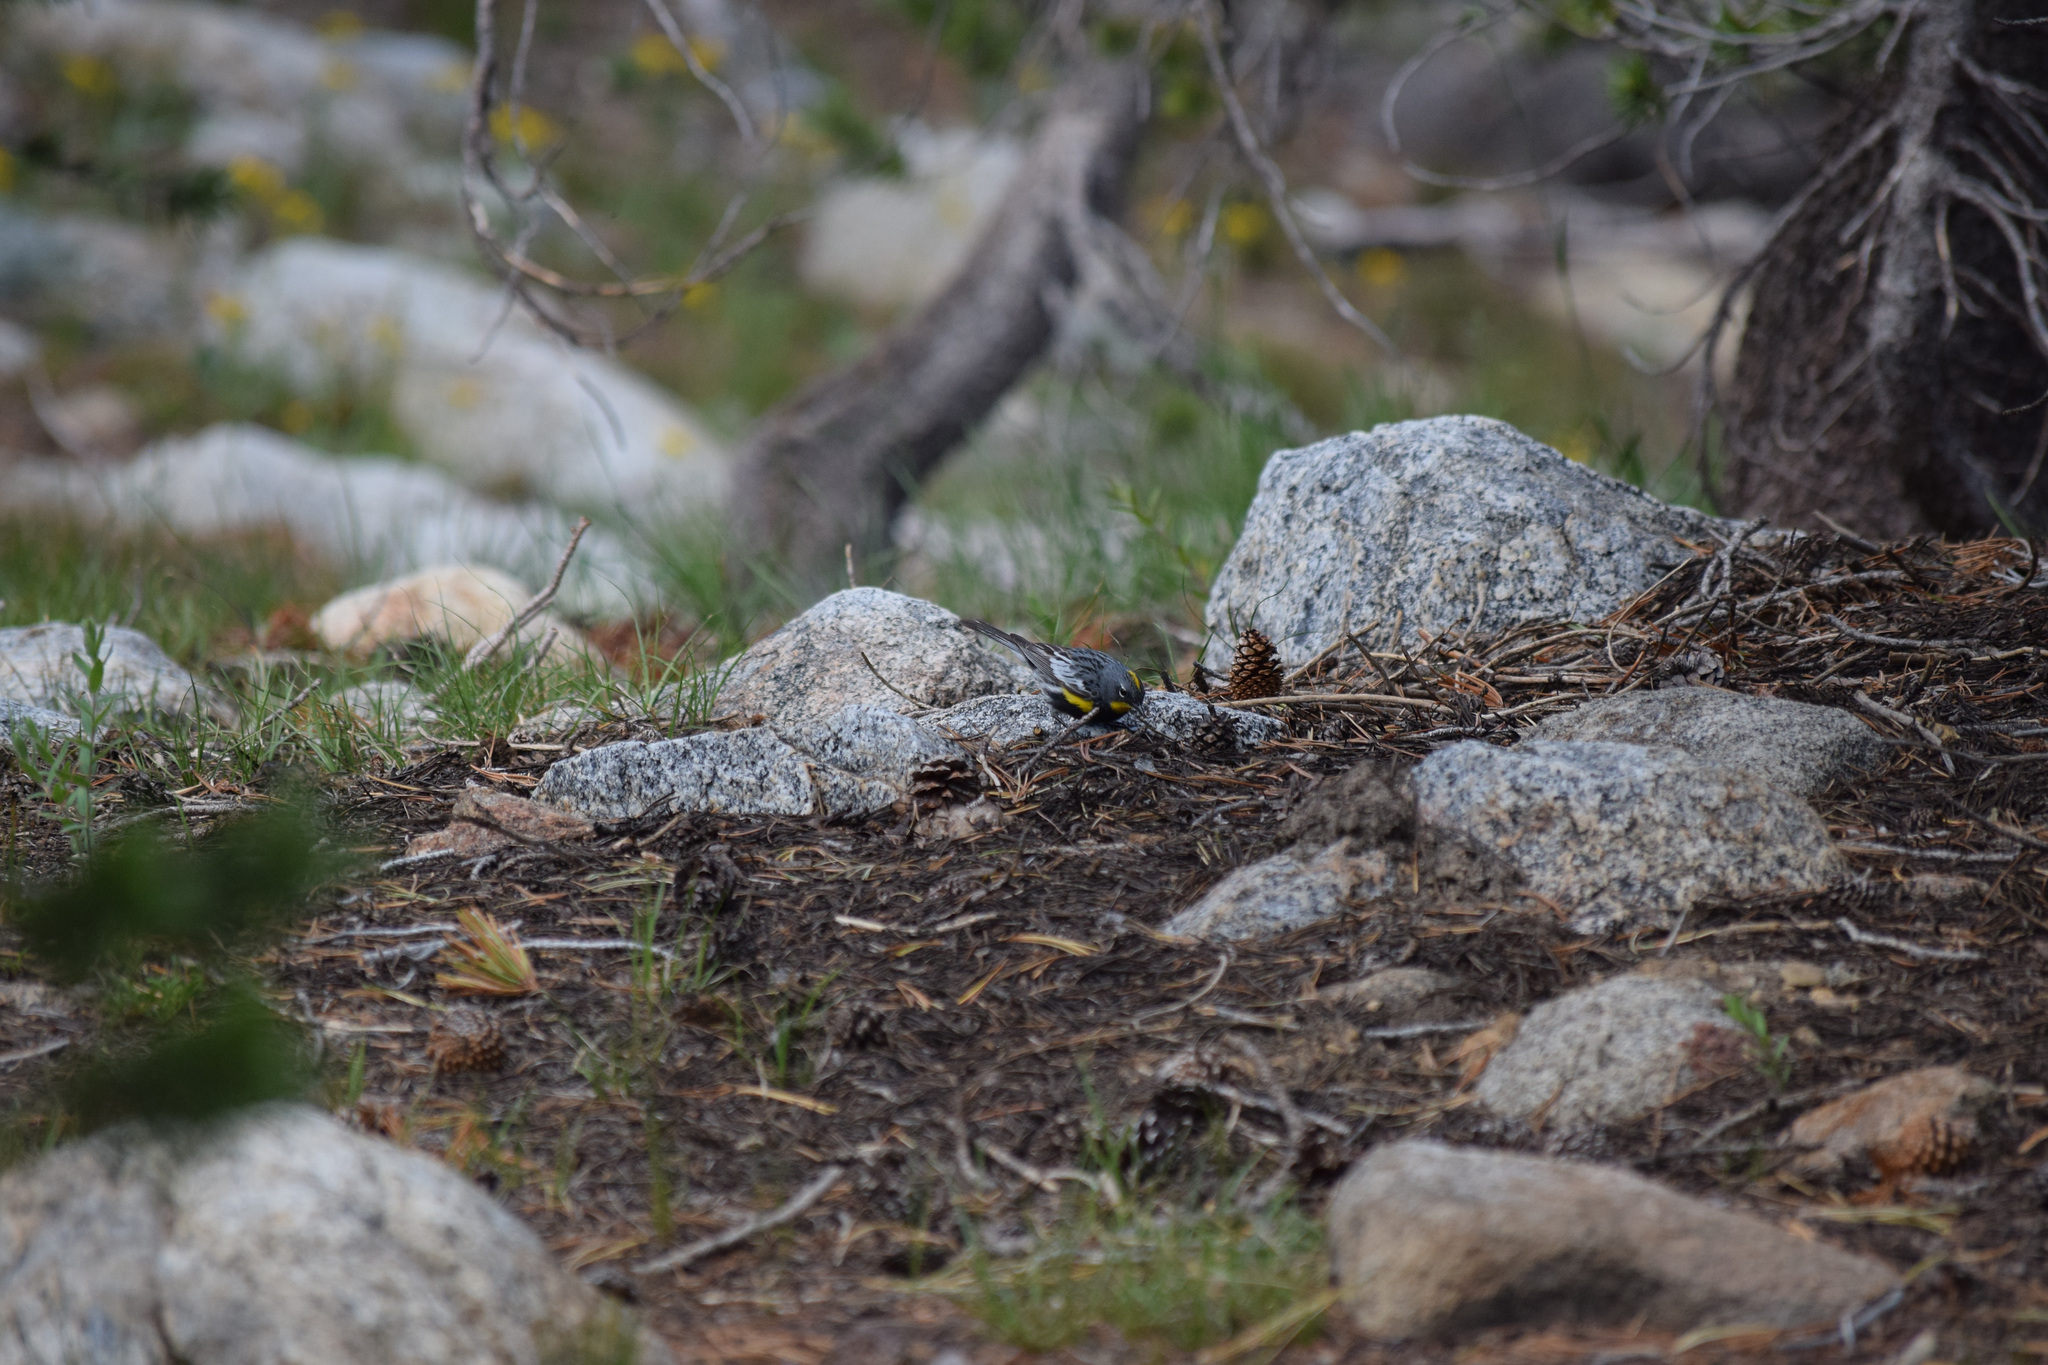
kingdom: Animalia
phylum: Chordata
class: Aves
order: Passeriformes
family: Parulidae
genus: Setophaga
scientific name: Setophaga coronata
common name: Myrtle warbler
